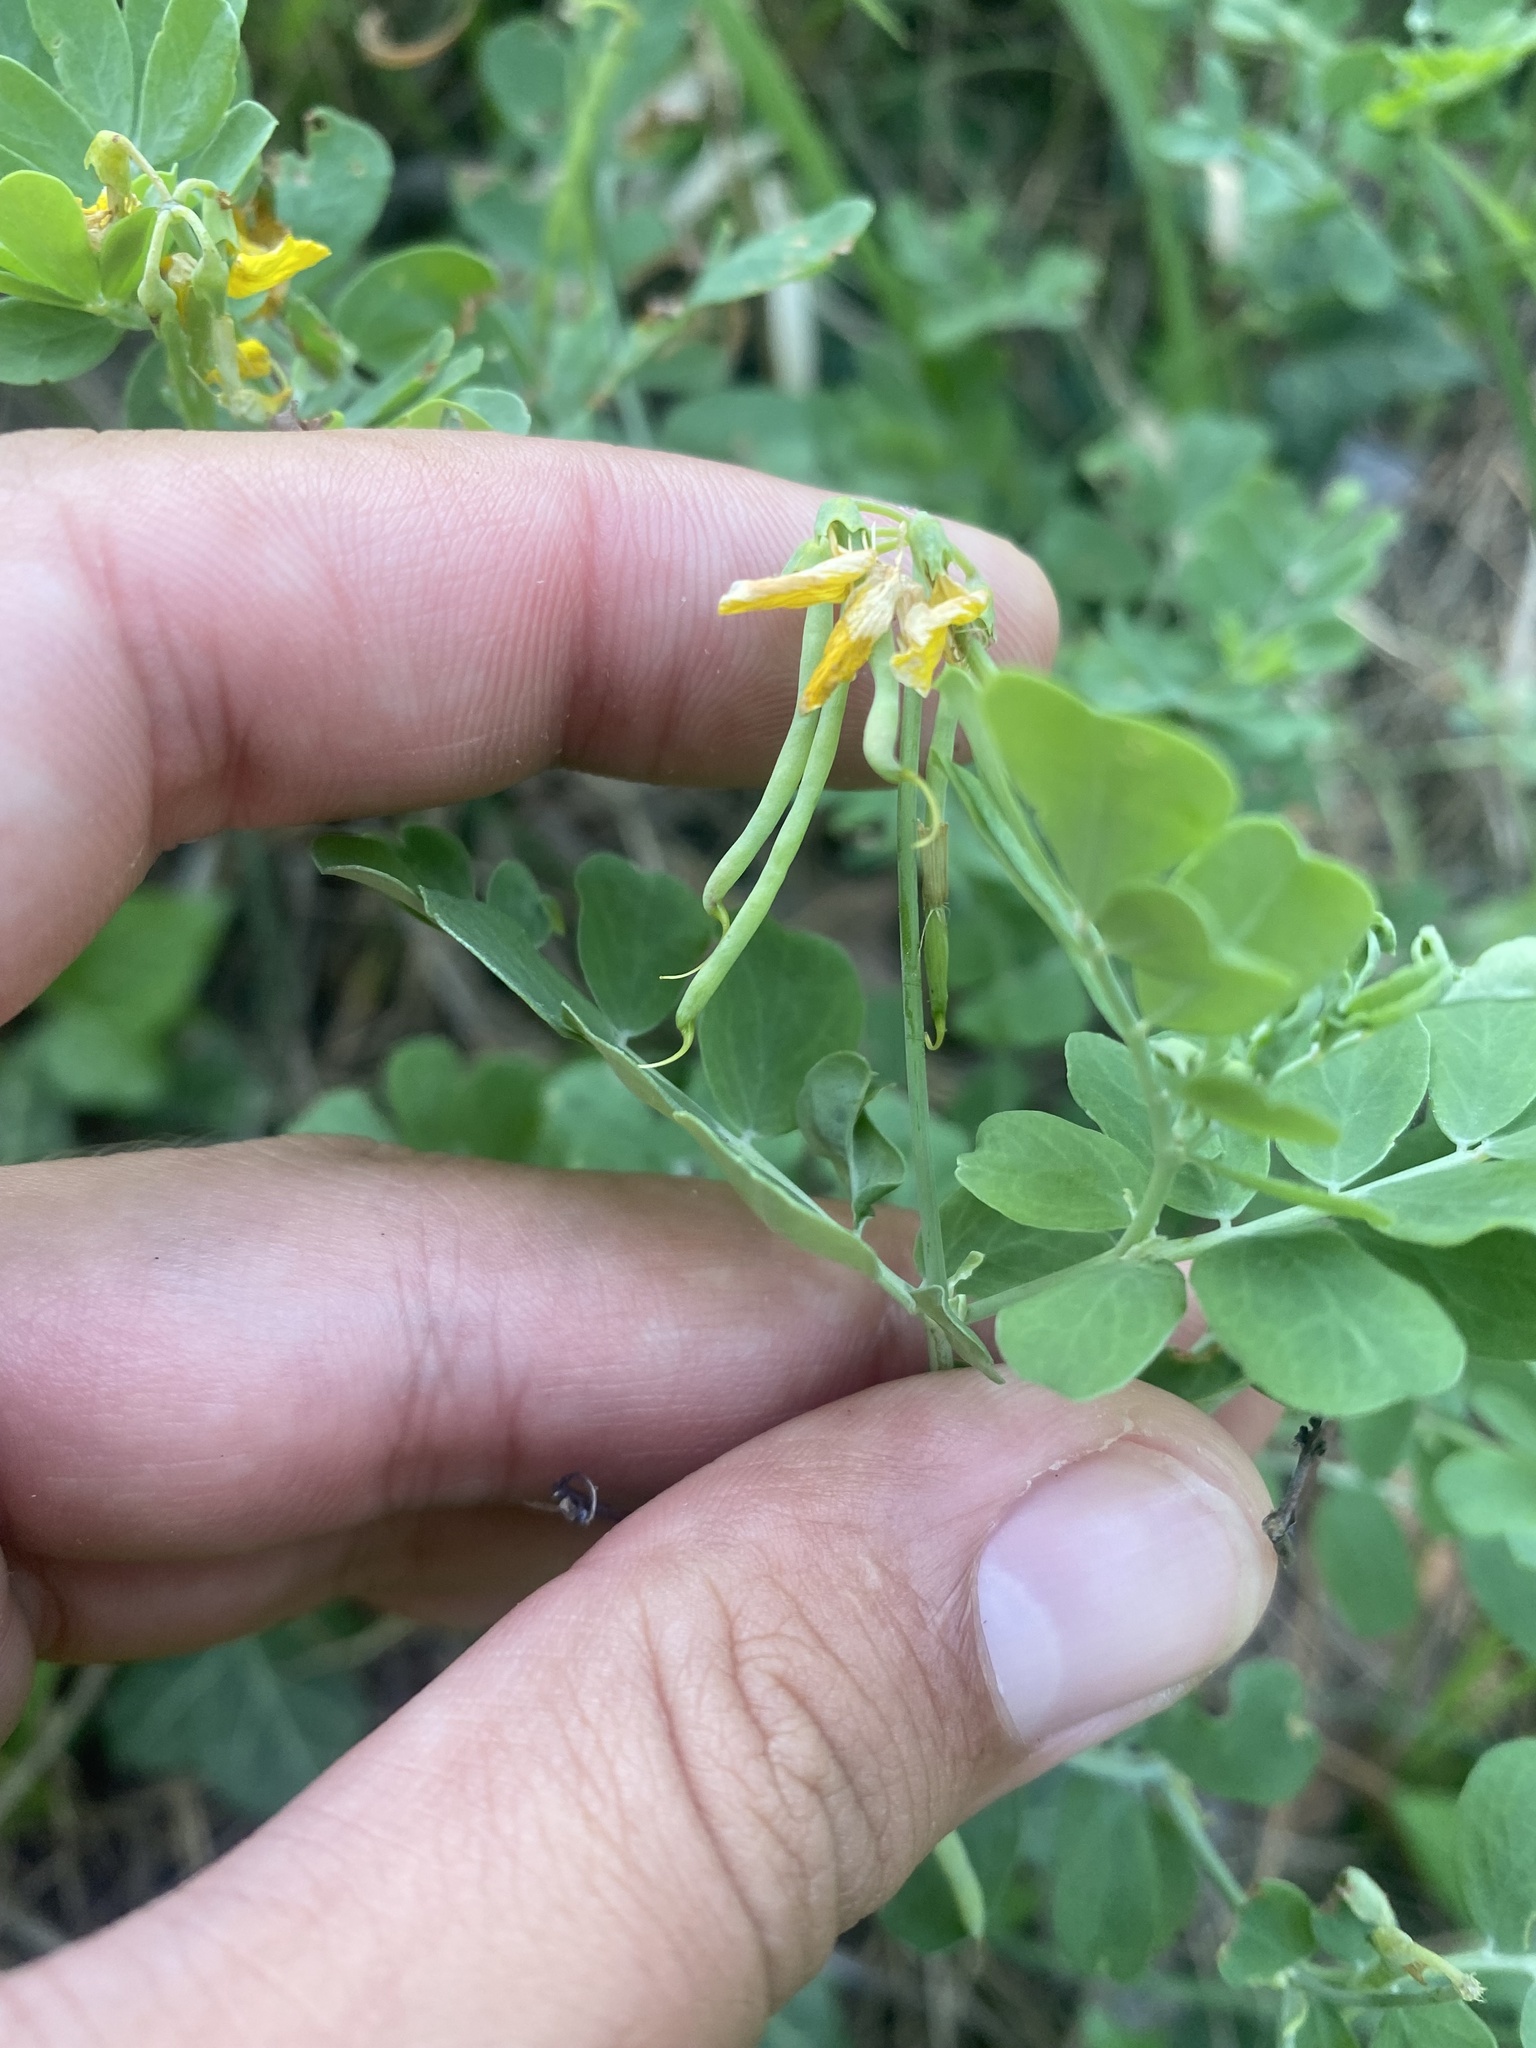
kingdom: Plantae
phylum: Tracheophyta
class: Magnoliopsida
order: Fabales
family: Fabaceae
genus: Coronilla
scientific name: Coronilla coronata
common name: Scorpion-vetch
